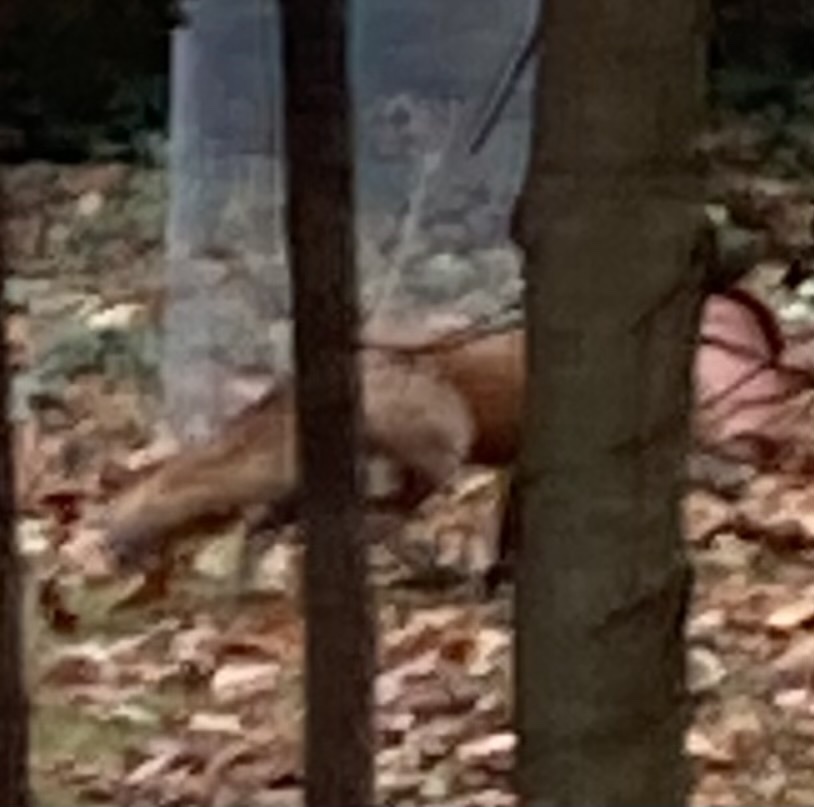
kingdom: Animalia
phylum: Chordata
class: Mammalia
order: Carnivora
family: Canidae
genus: Vulpes
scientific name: Vulpes vulpes
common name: Red fox
